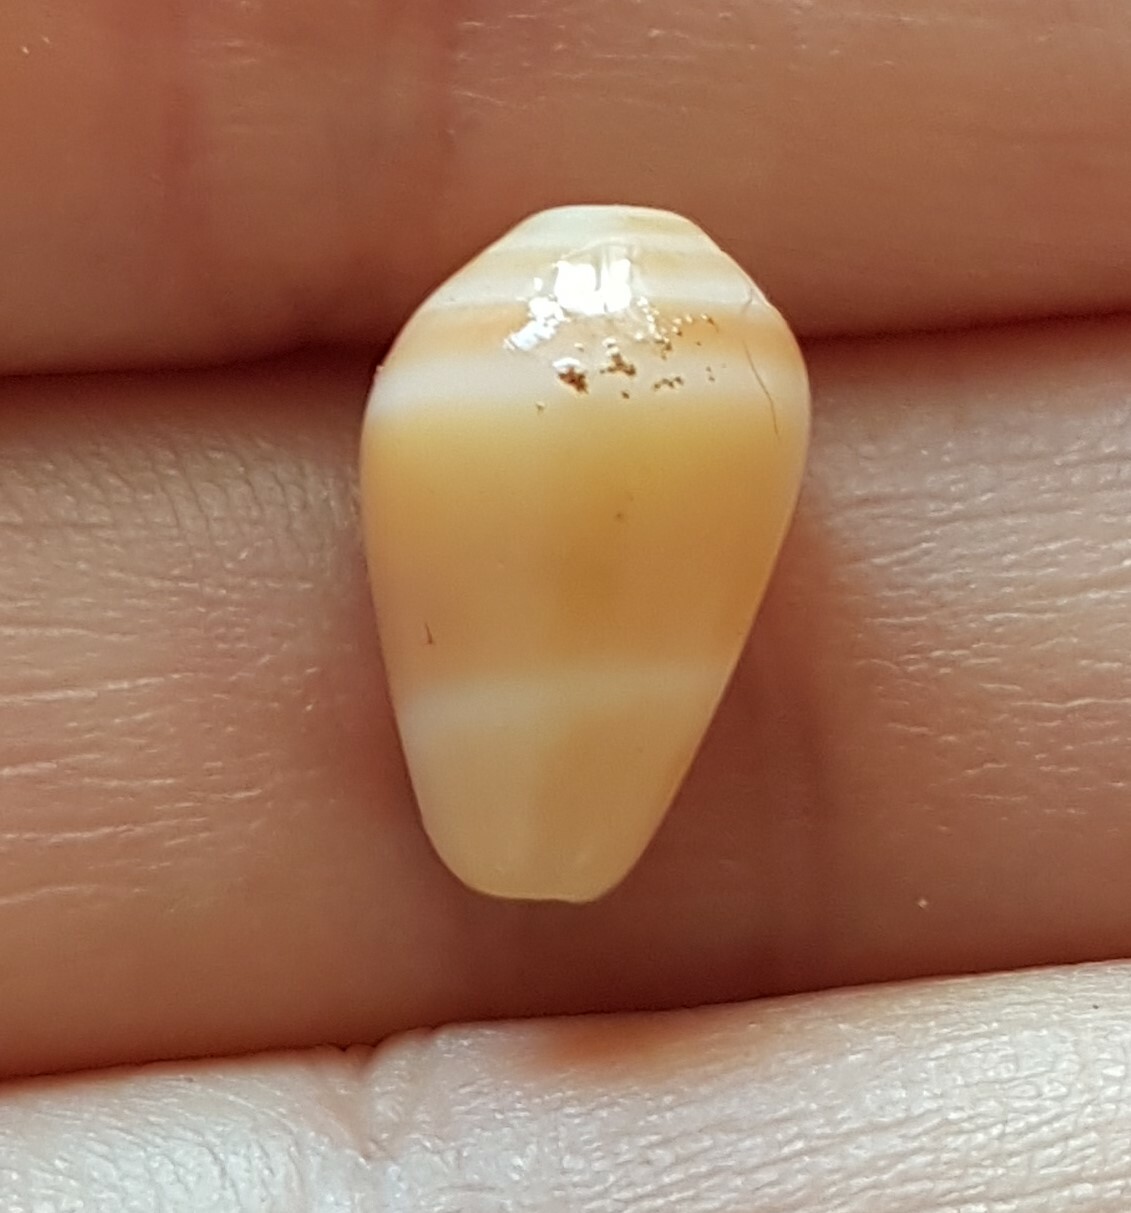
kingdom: Animalia
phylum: Mollusca
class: Gastropoda
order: Neogastropoda
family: Conidae
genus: Conus
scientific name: Conus ventricosus
